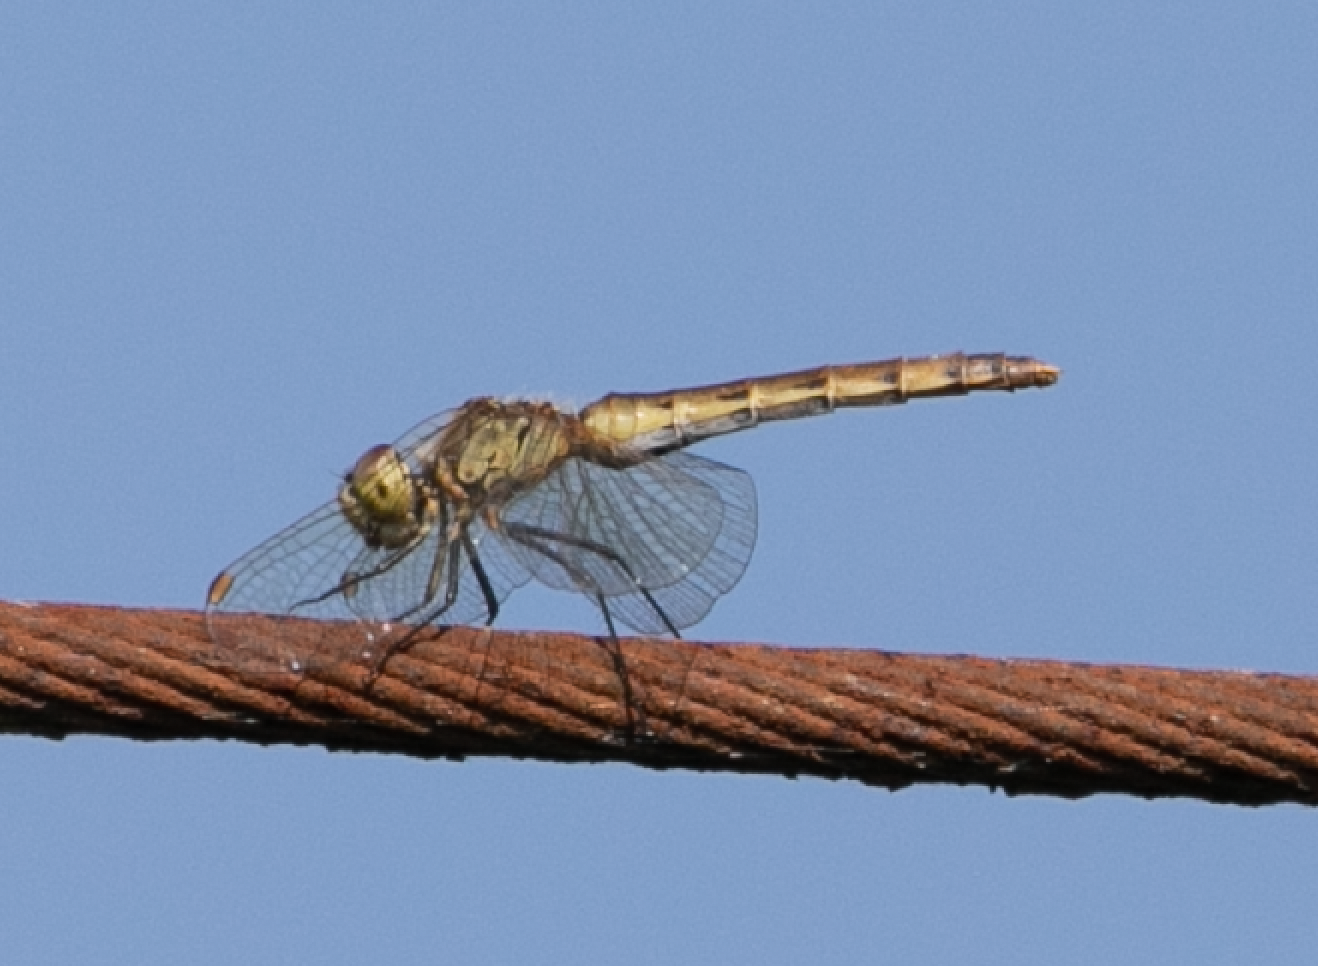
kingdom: Animalia
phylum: Arthropoda
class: Insecta
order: Odonata
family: Libellulidae
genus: Sympetrum
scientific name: Sympetrum depressiusculum
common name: Spotted darter
